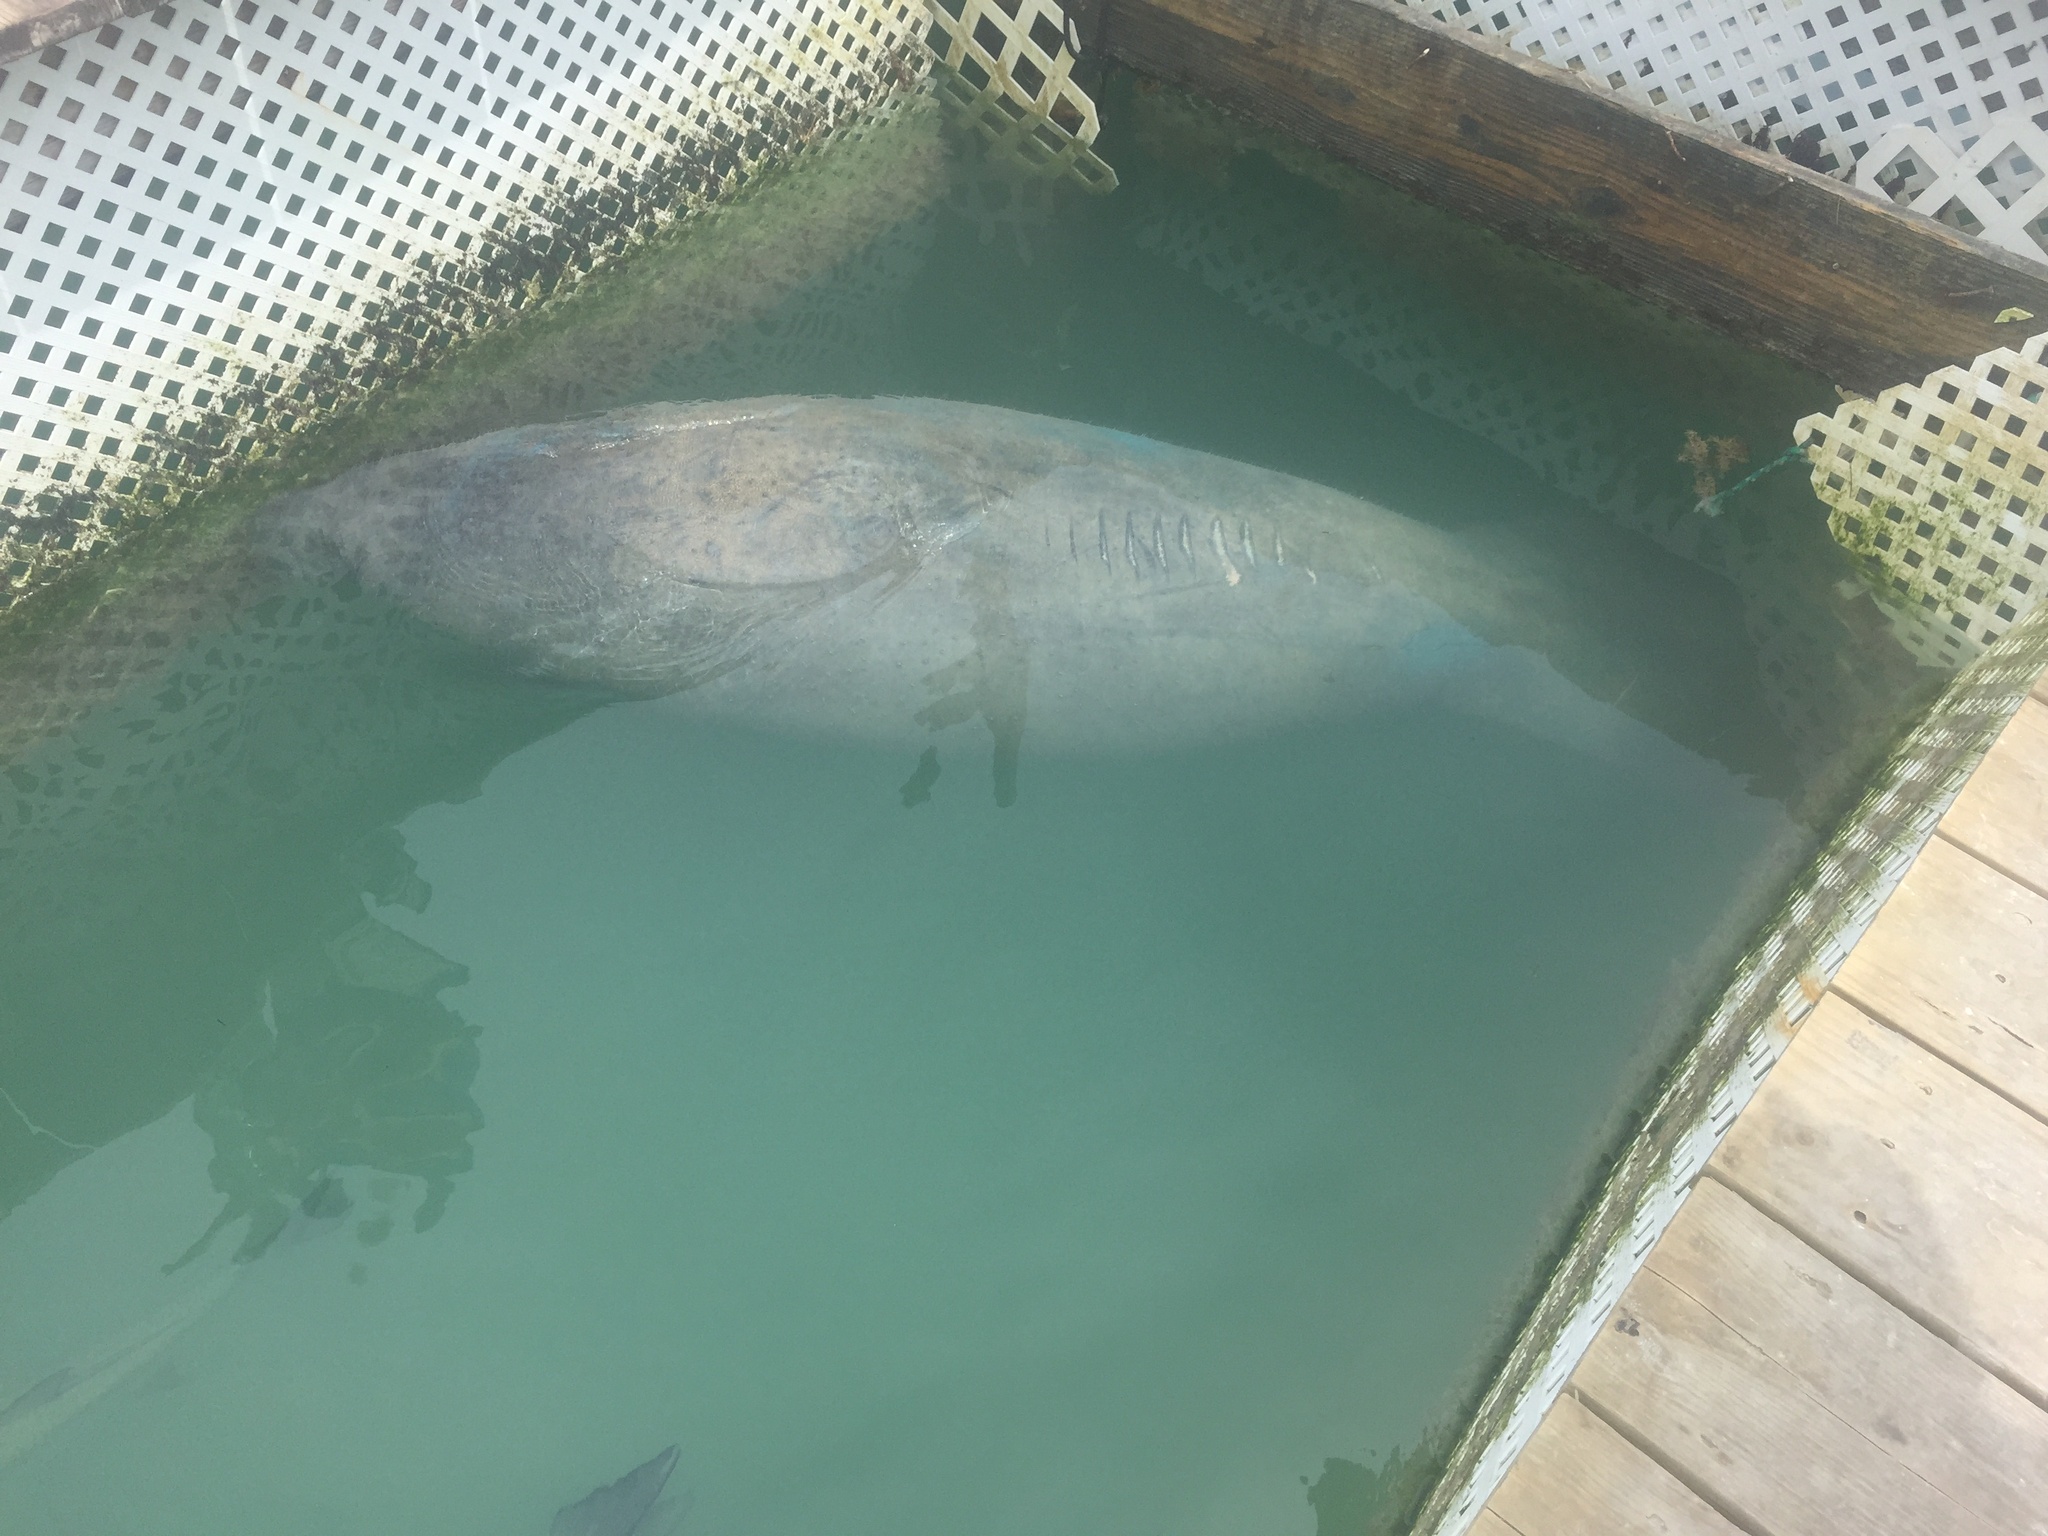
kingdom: Animalia
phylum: Chordata
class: Mammalia
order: Sirenia
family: Trichechidae
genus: Trichechus
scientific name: Trichechus manatus
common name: West indian manatee
